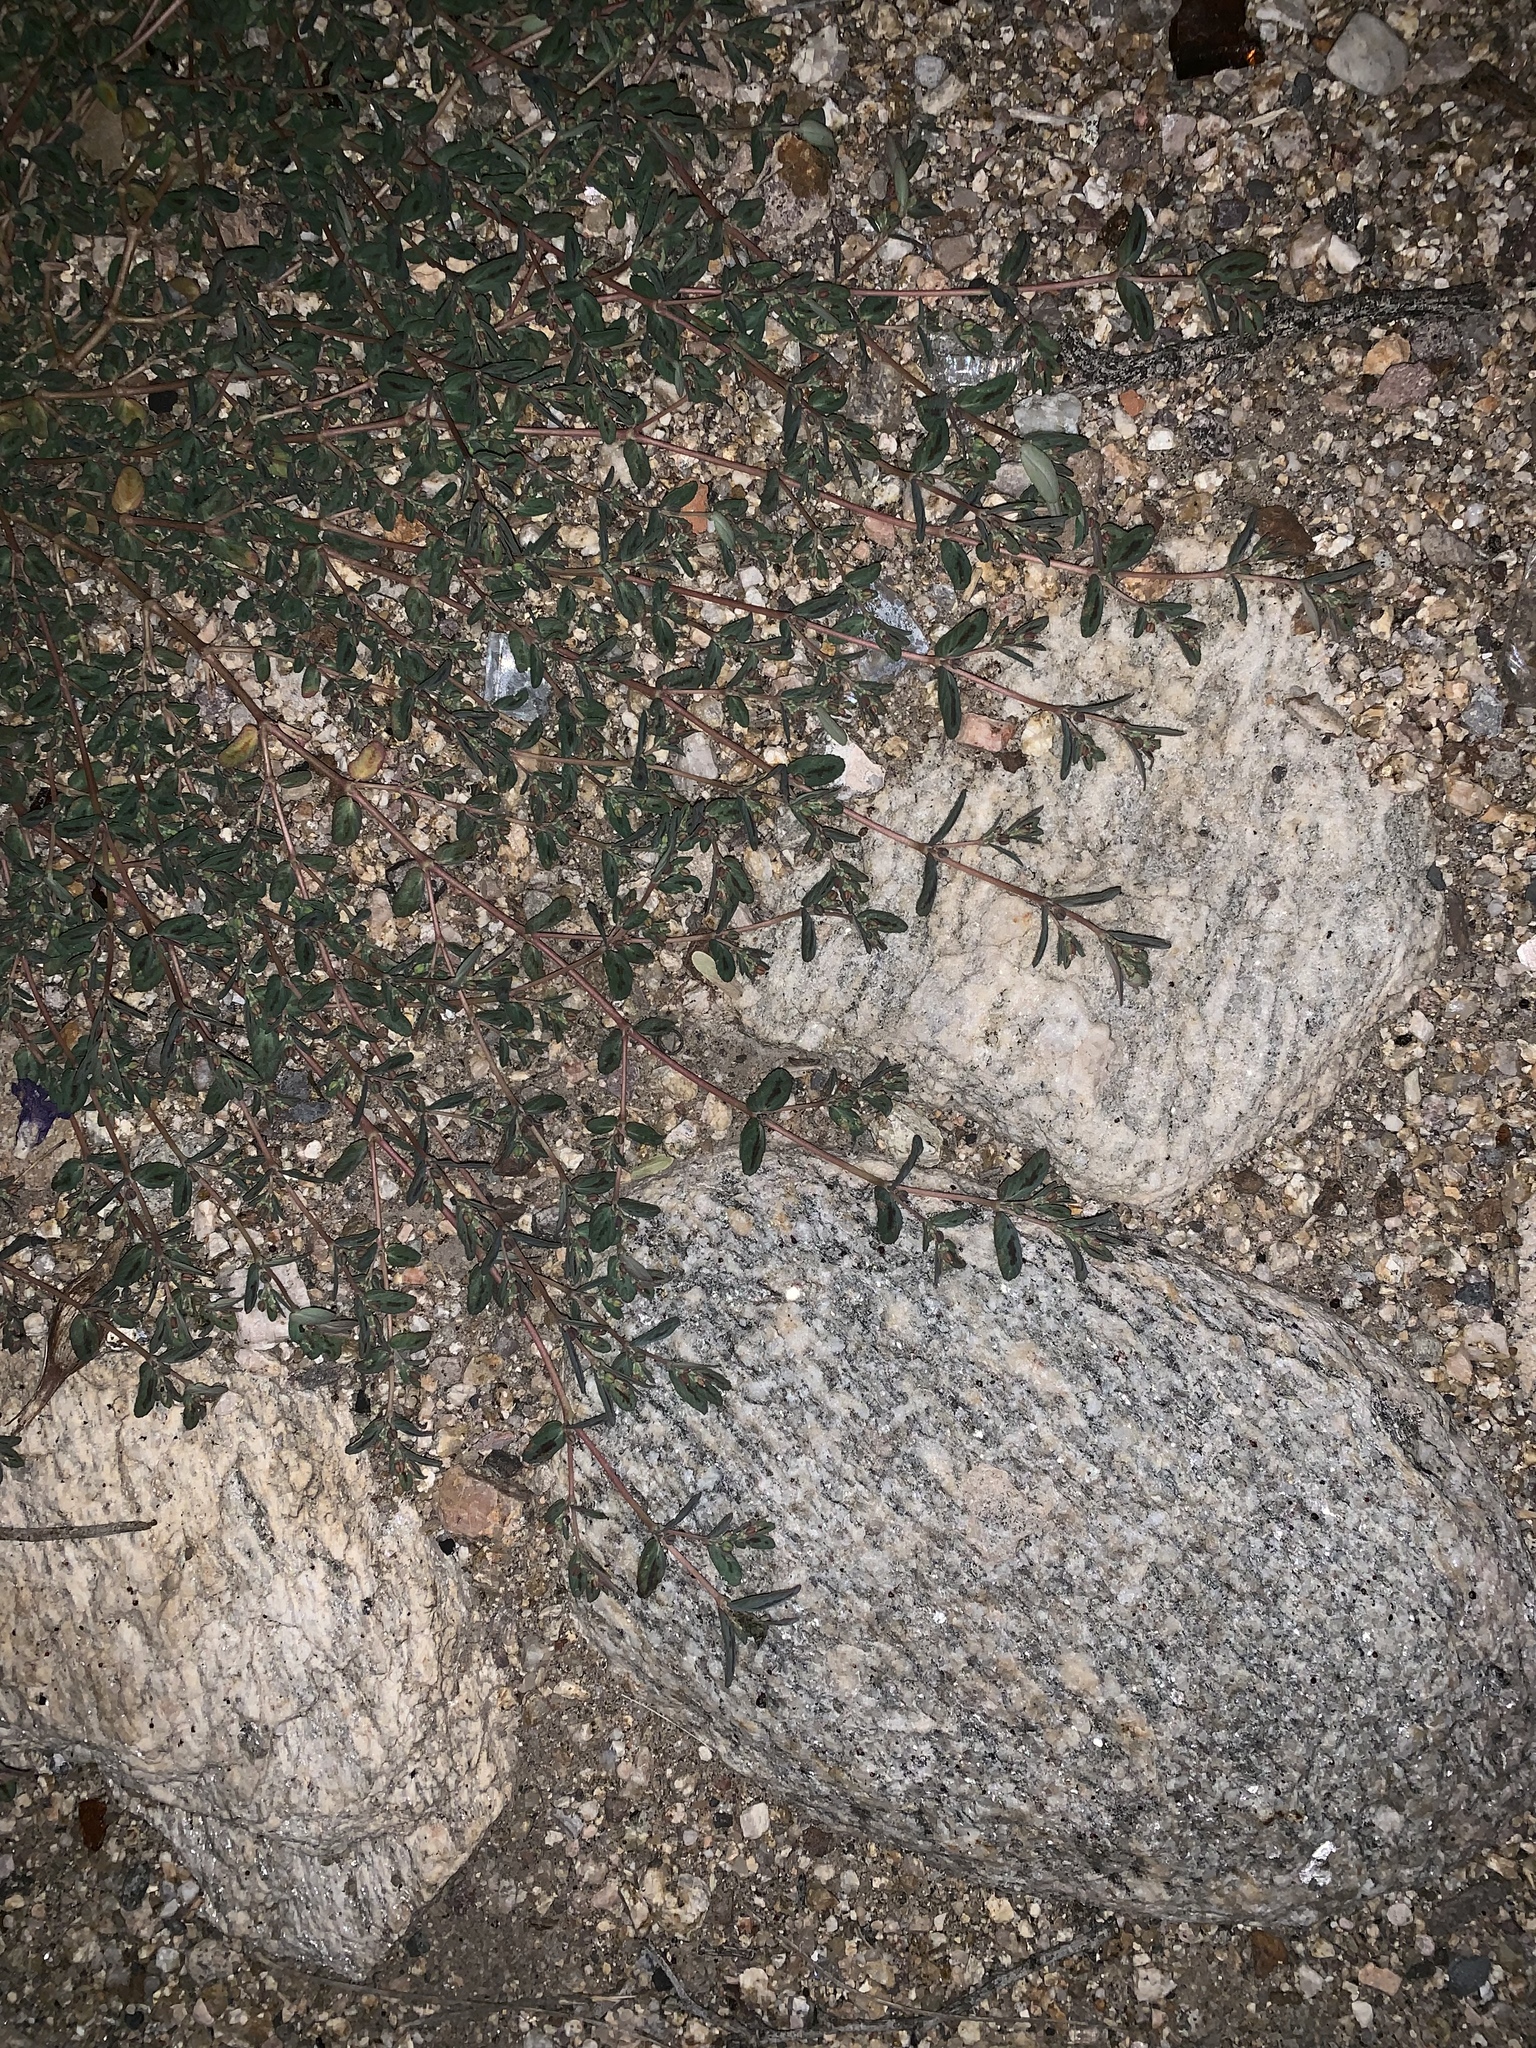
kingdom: Plantae
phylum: Tracheophyta
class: Magnoliopsida
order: Malpighiales
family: Euphorbiaceae
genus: Euphorbia
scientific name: Euphorbia abramsiana
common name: Abram's spurge
